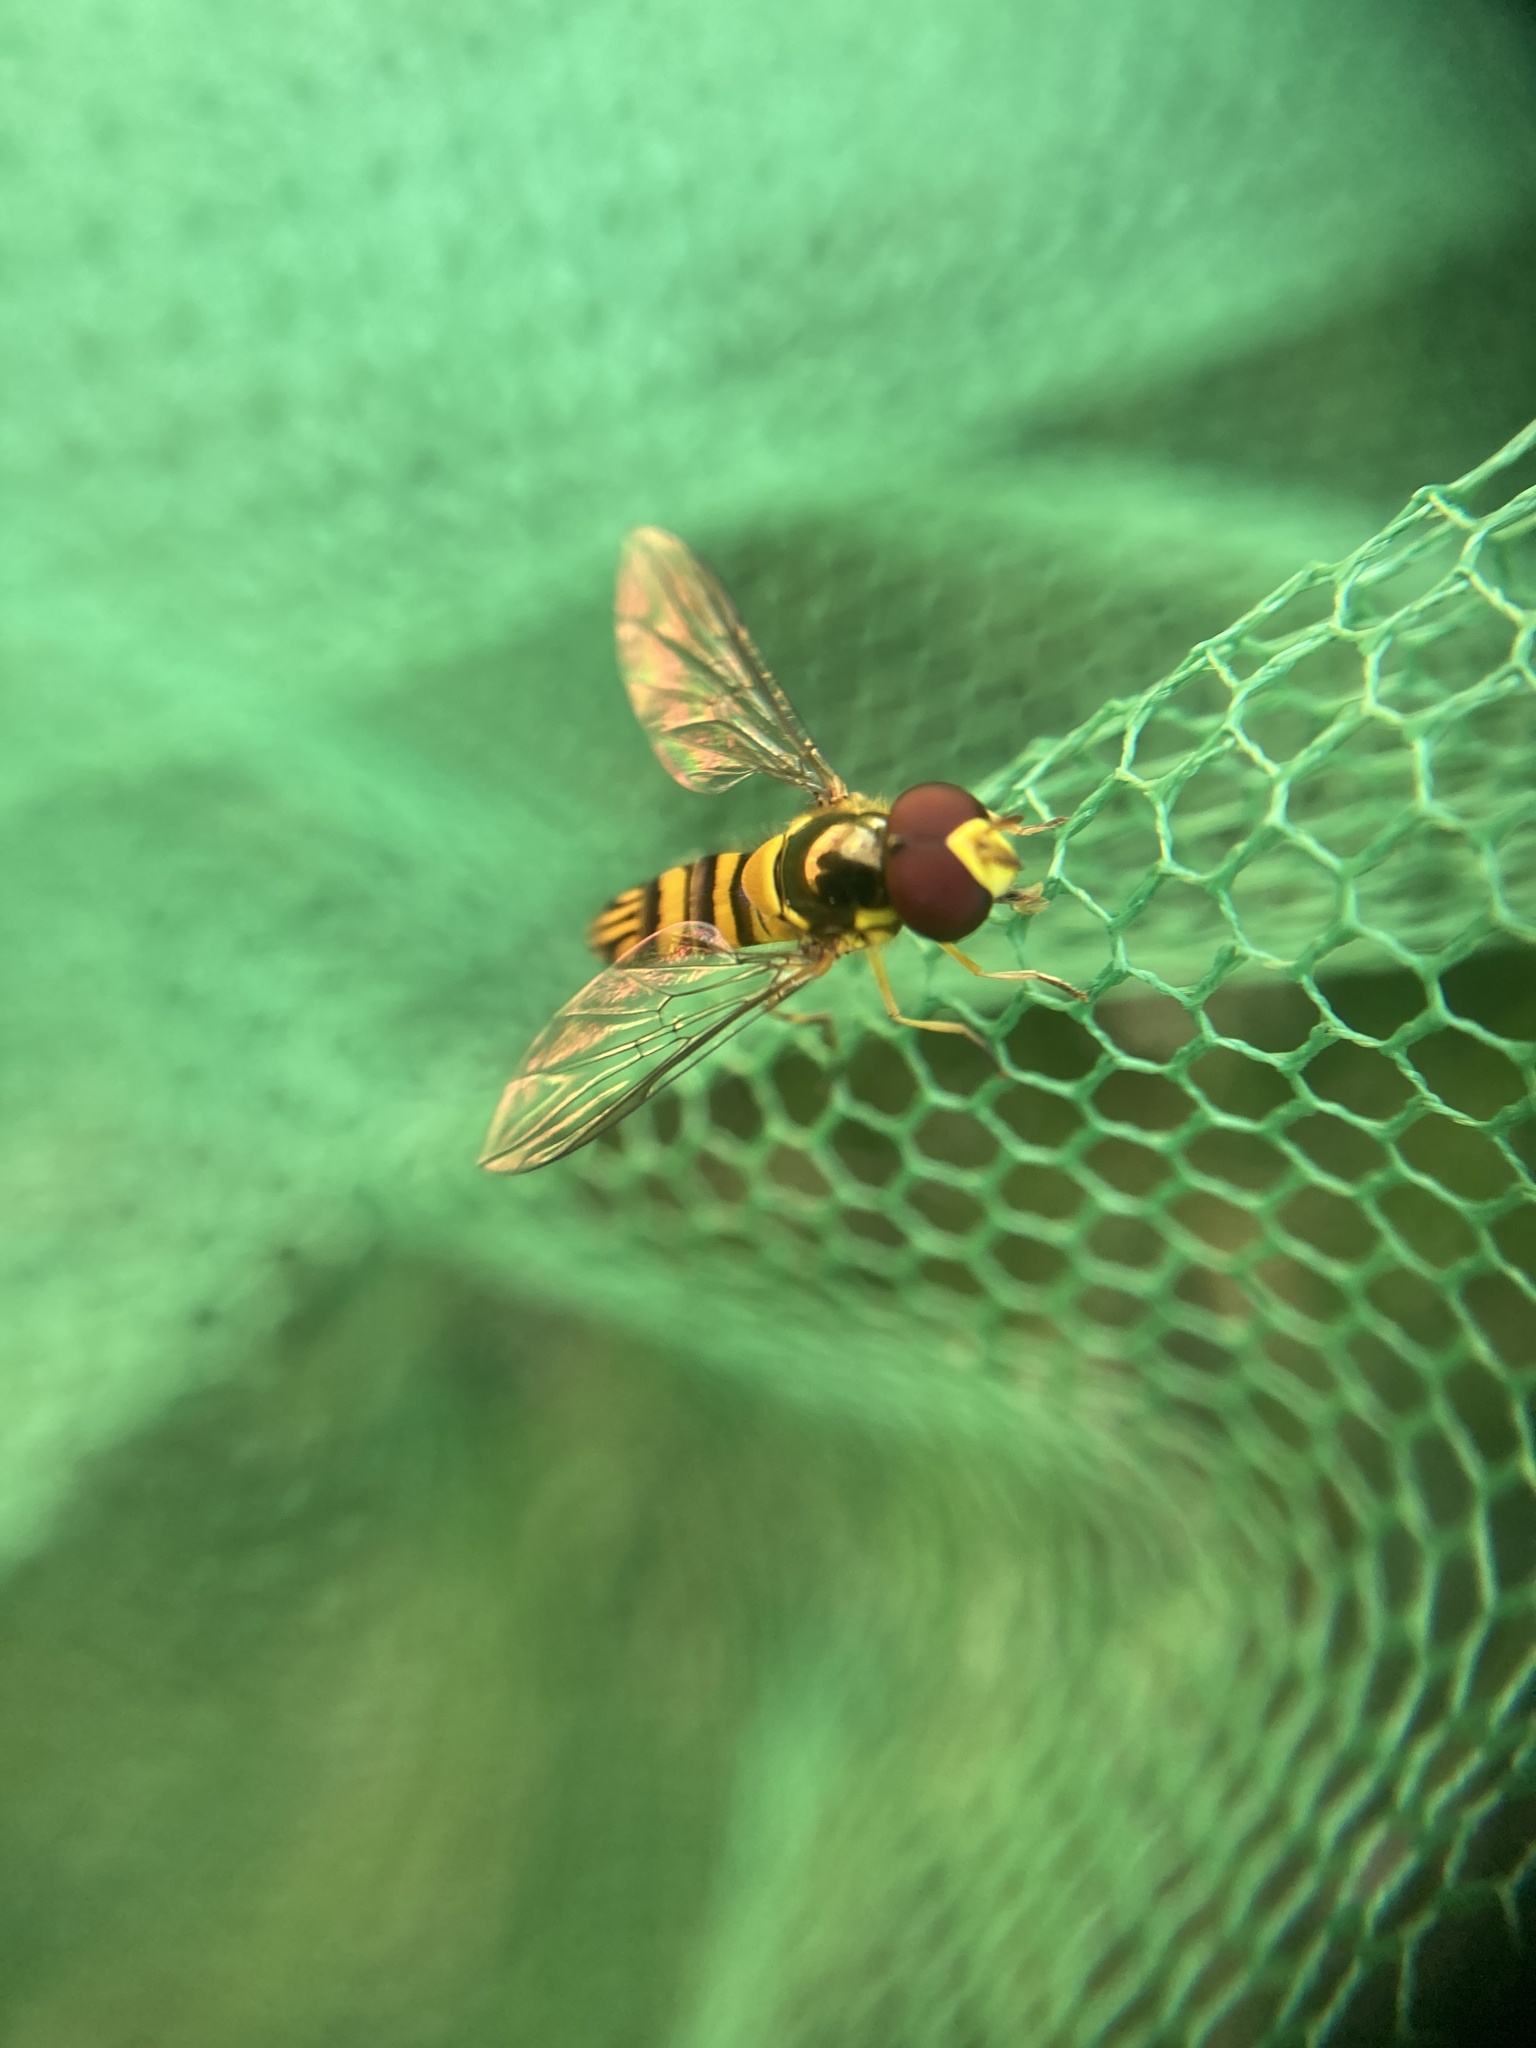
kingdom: Animalia
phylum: Arthropoda
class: Insecta
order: Diptera
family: Syrphidae
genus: Allograpta
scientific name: Allograpta obliqua
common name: Common oblique syrphid
